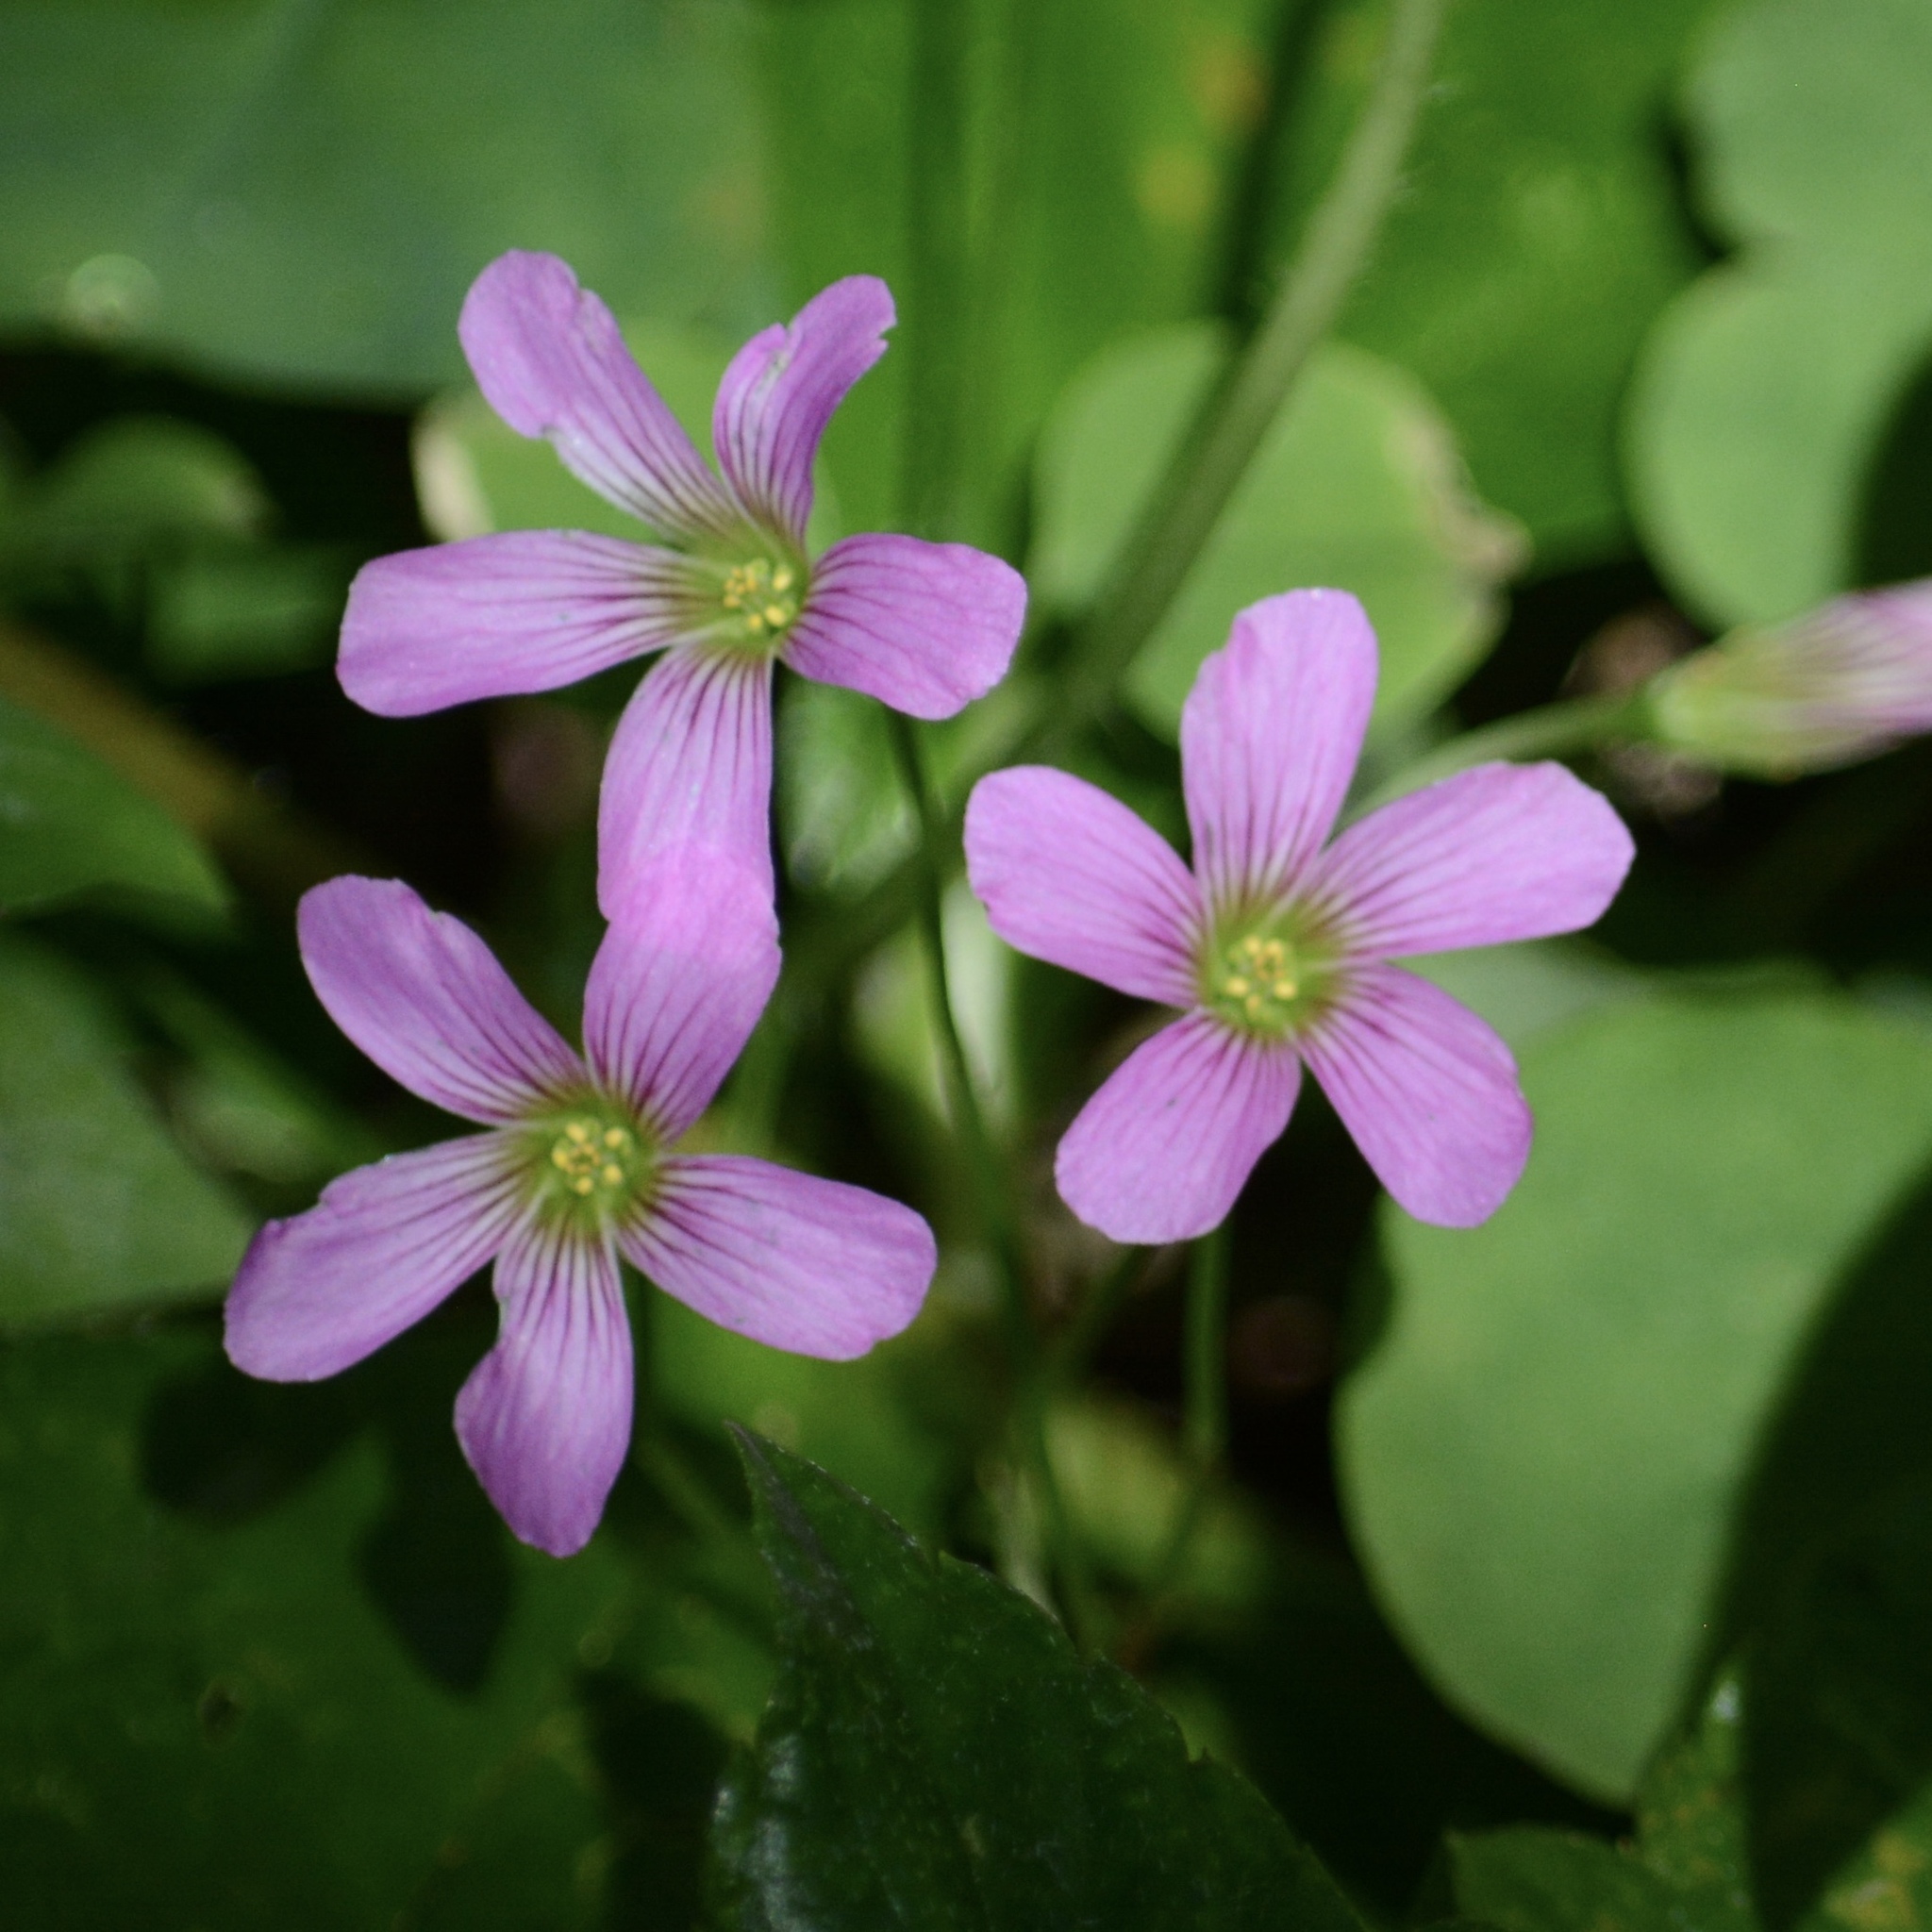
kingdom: Plantae
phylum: Tracheophyta
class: Magnoliopsida
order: Oxalidales
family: Oxalidaceae
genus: Oxalis
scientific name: Oxalis debilis
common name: Large-flowered pink-sorrel
